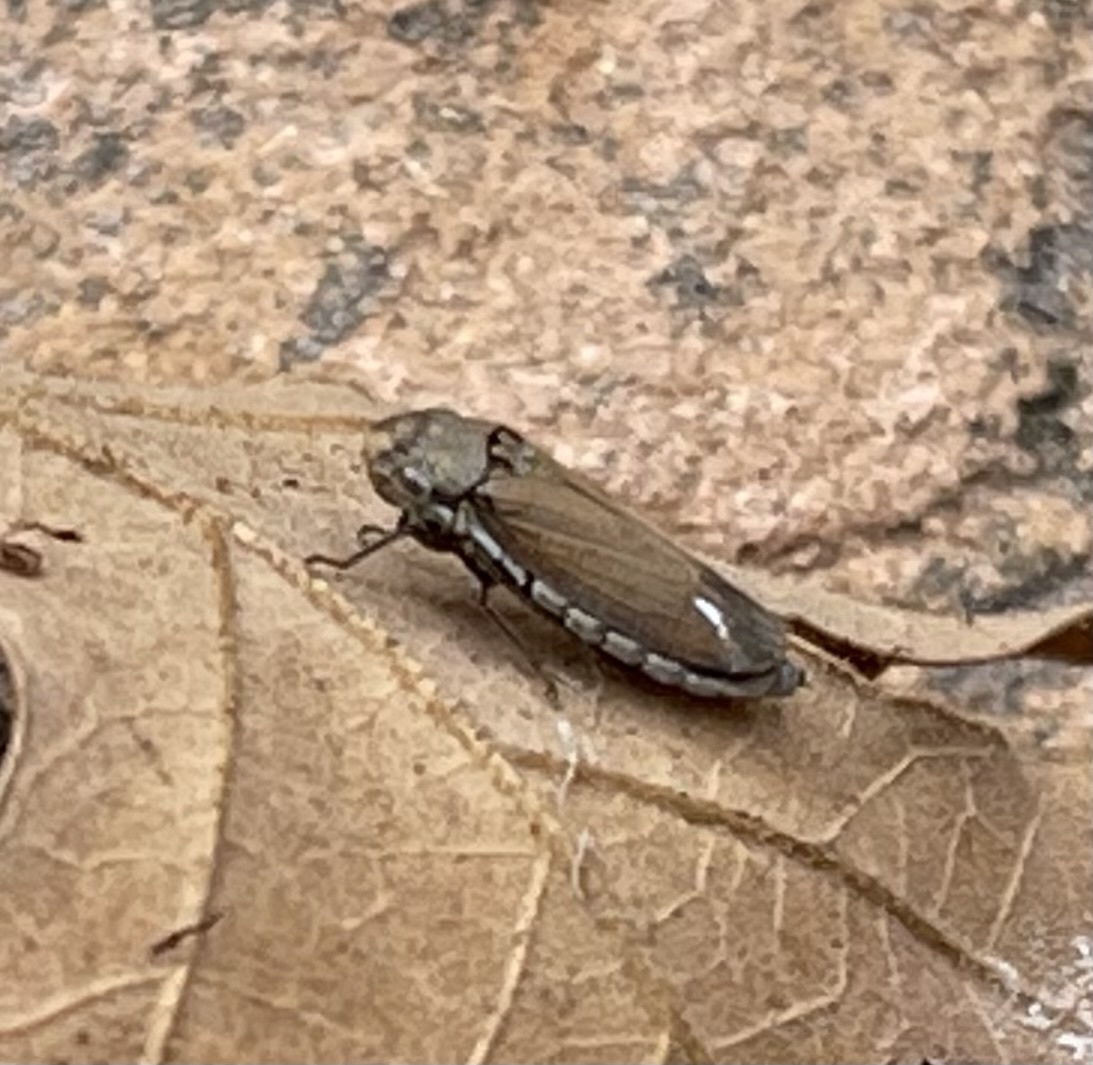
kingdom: Animalia
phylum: Arthropoda
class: Insecta
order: Hemiptera
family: Cicadellidae
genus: Cuerna
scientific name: Cuerna curvata
